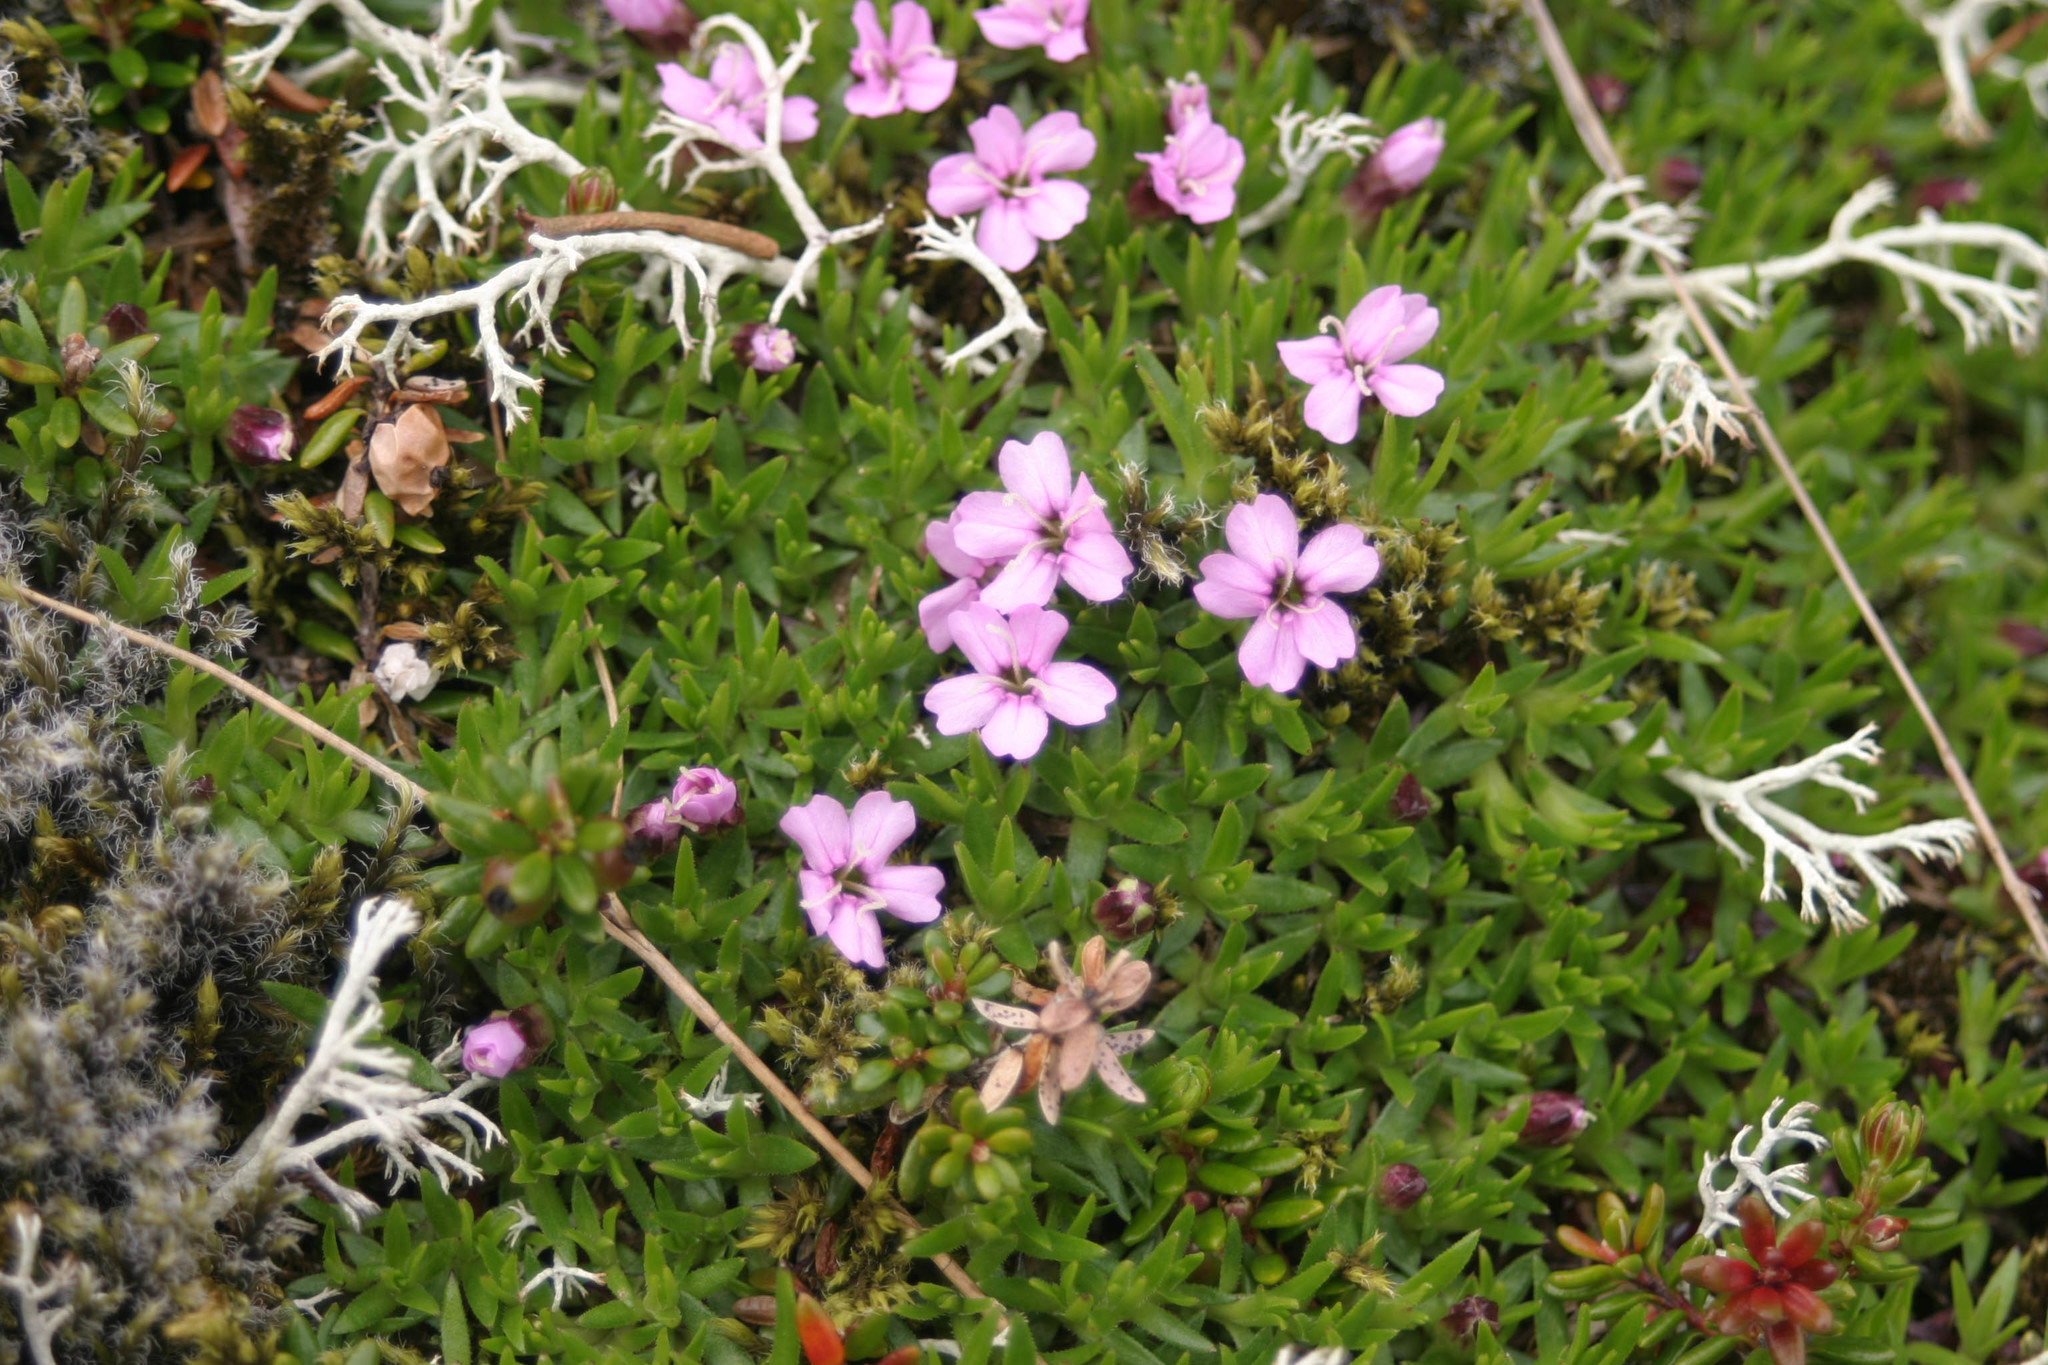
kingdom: Plantae
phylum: Tracheophyta
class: Magnoliopsida
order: Caryophyllales
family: Caryophyllaceae
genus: Silene
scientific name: Silene acaulis
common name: Moss campion
